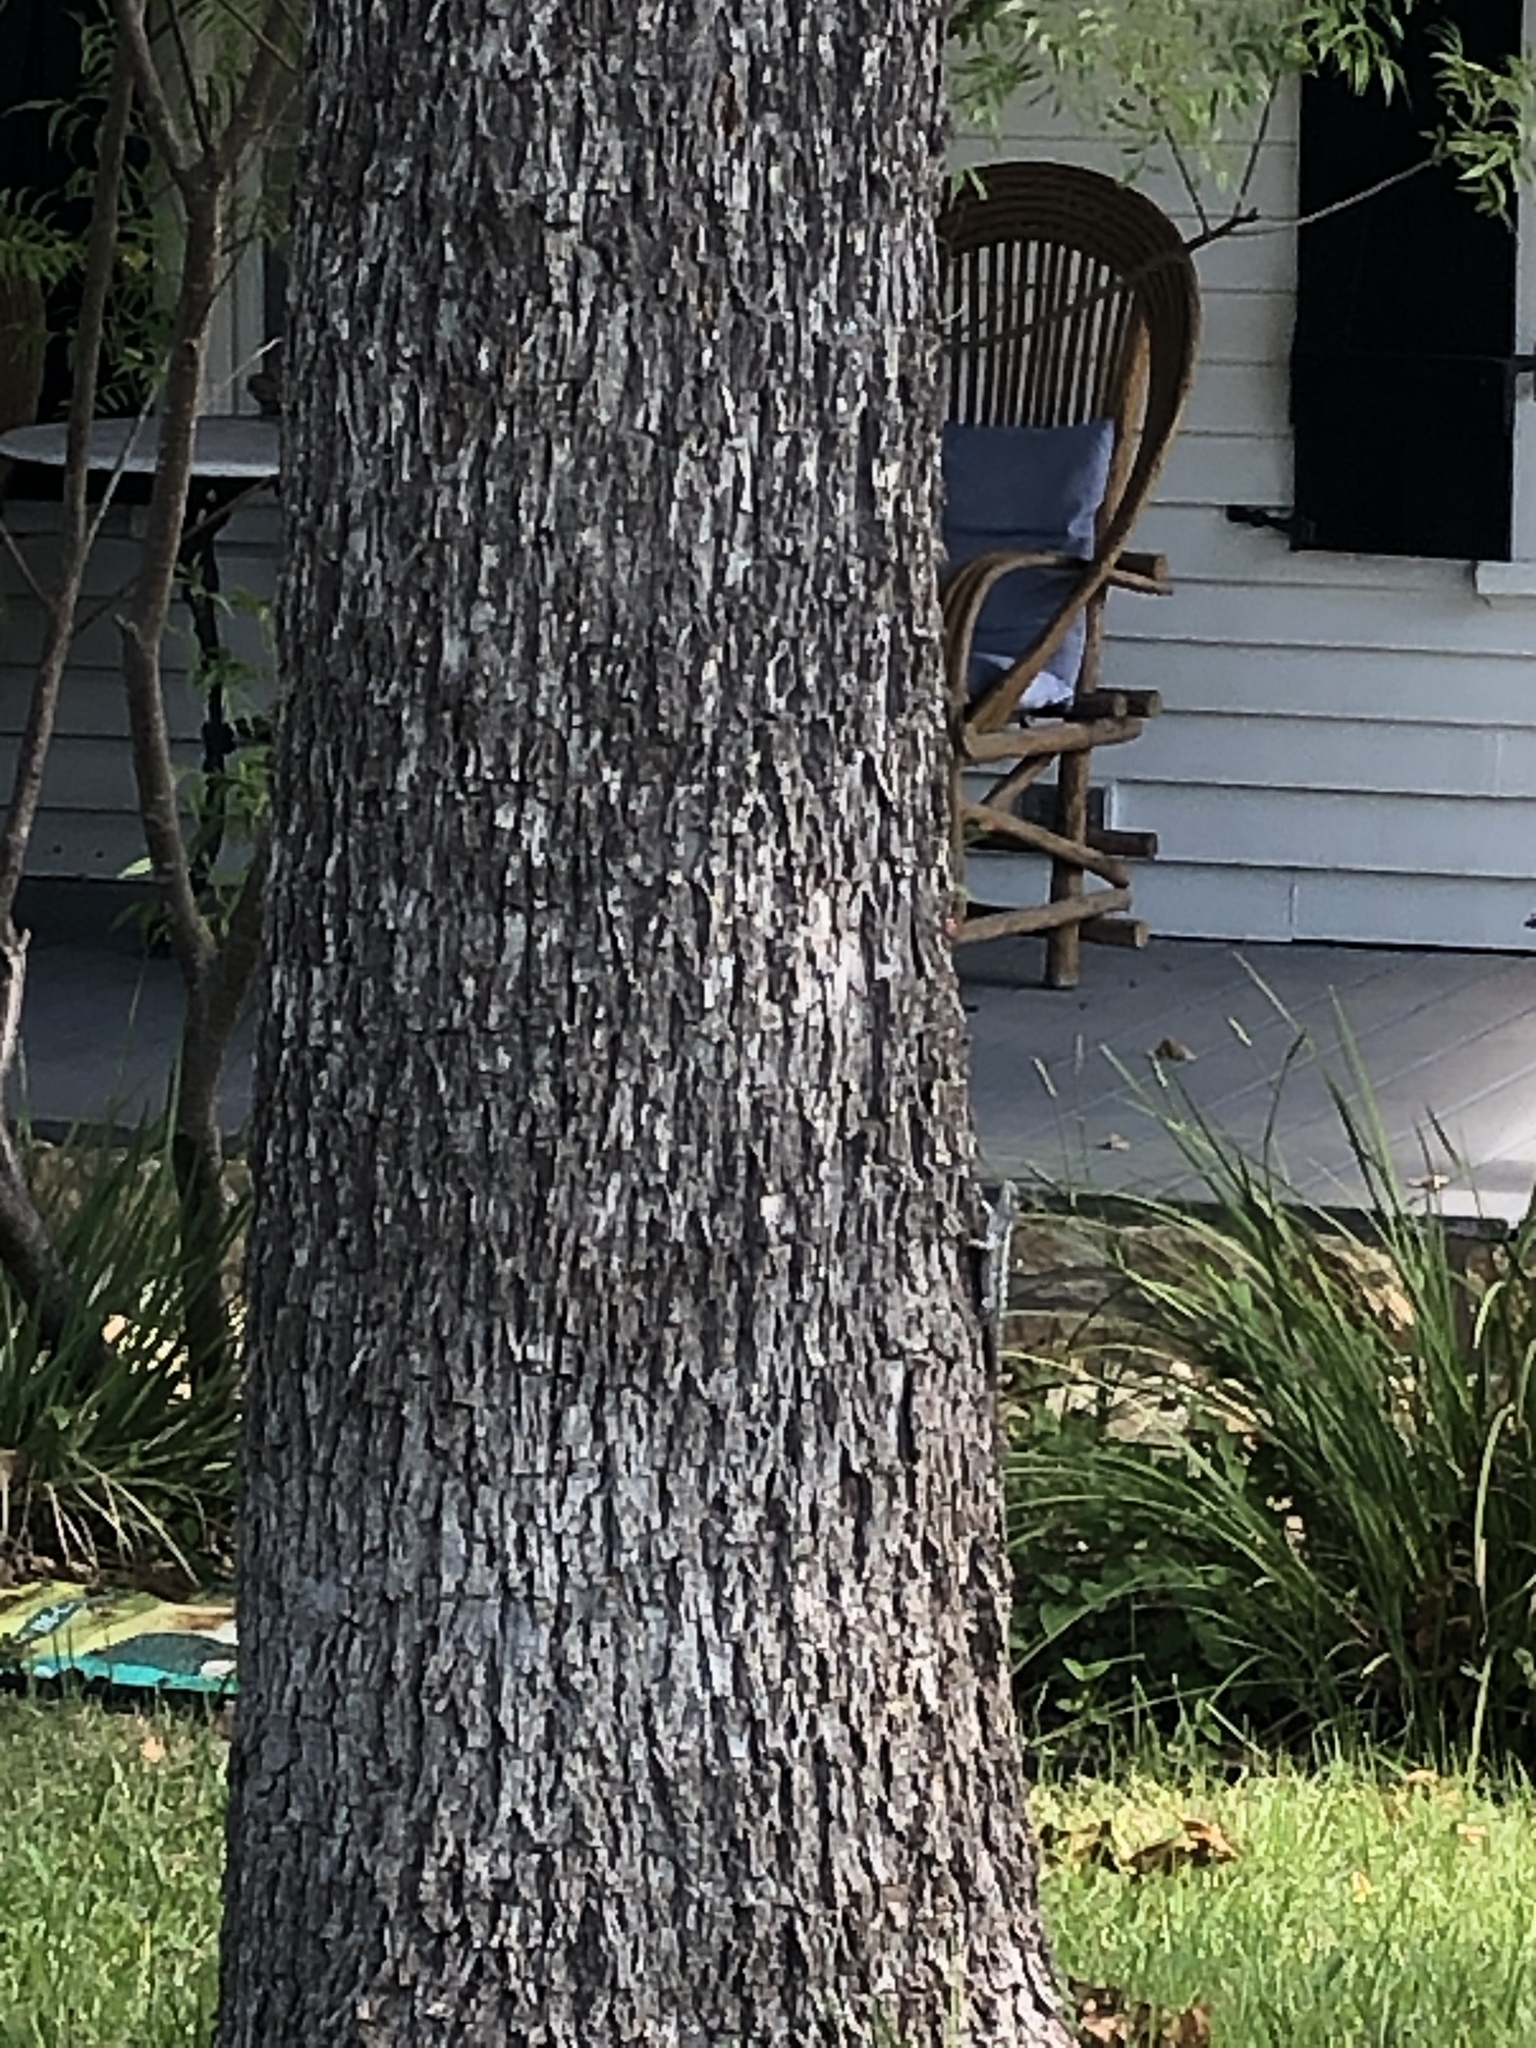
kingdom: Animalia
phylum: Chordata
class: Squamata
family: Phrynosomatidae
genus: Sceloporus
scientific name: Sceloporus olivaceus
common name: Texas spiny lizard
